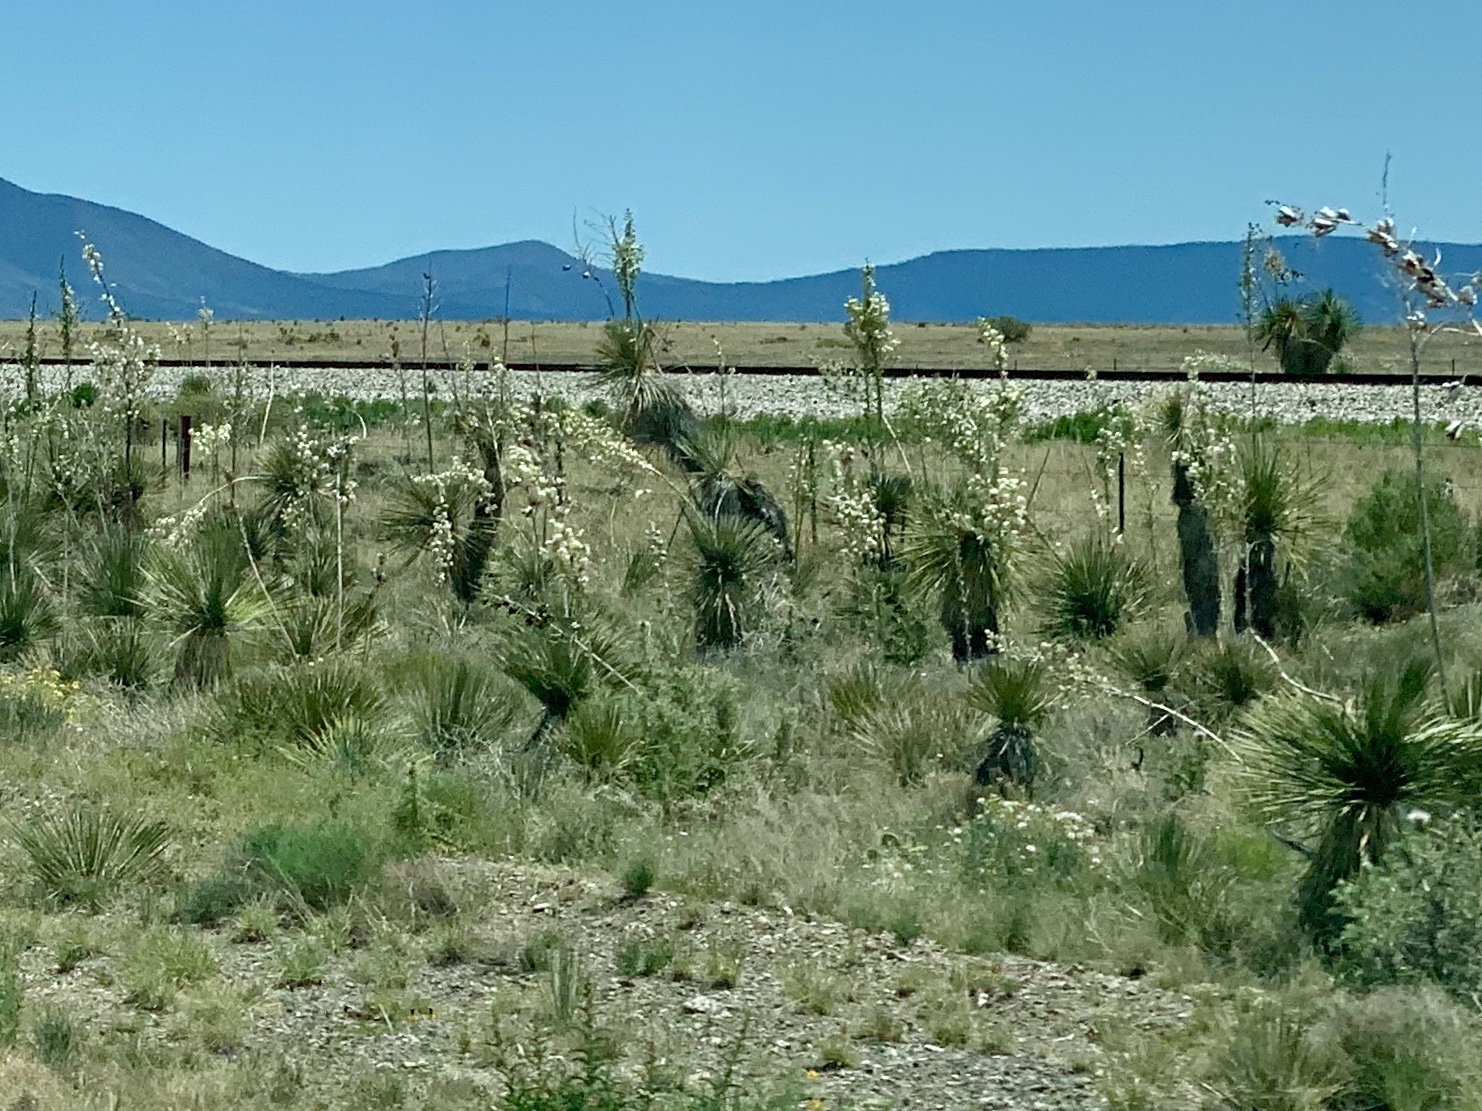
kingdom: Plantae
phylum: Tracheophyta
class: Liliopsida
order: Asparagales
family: Asparagaceae
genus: Yucca
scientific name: Yucca elata
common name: Palmella
